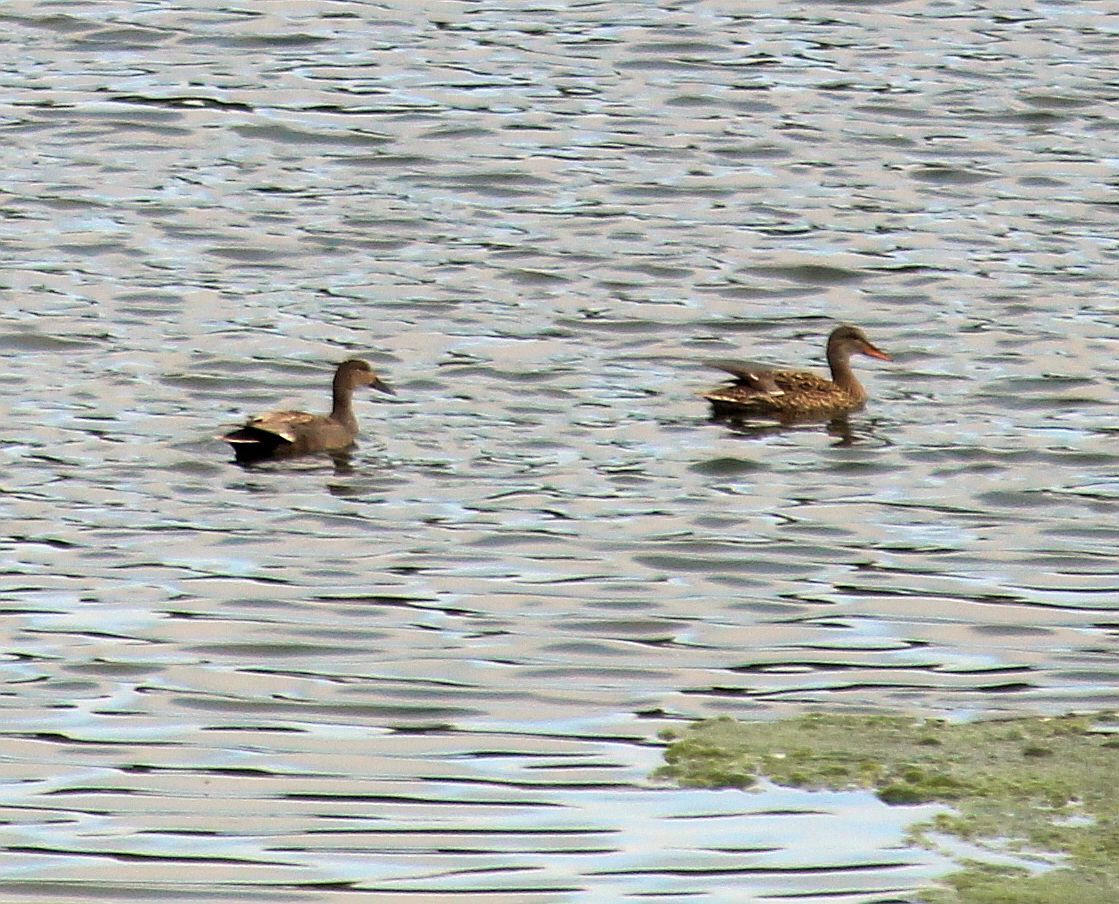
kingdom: Animalia
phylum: Chordata
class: Aves
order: Anseriformes
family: Anatidae
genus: Mareca
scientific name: Mareca strepera
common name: Gadwall
